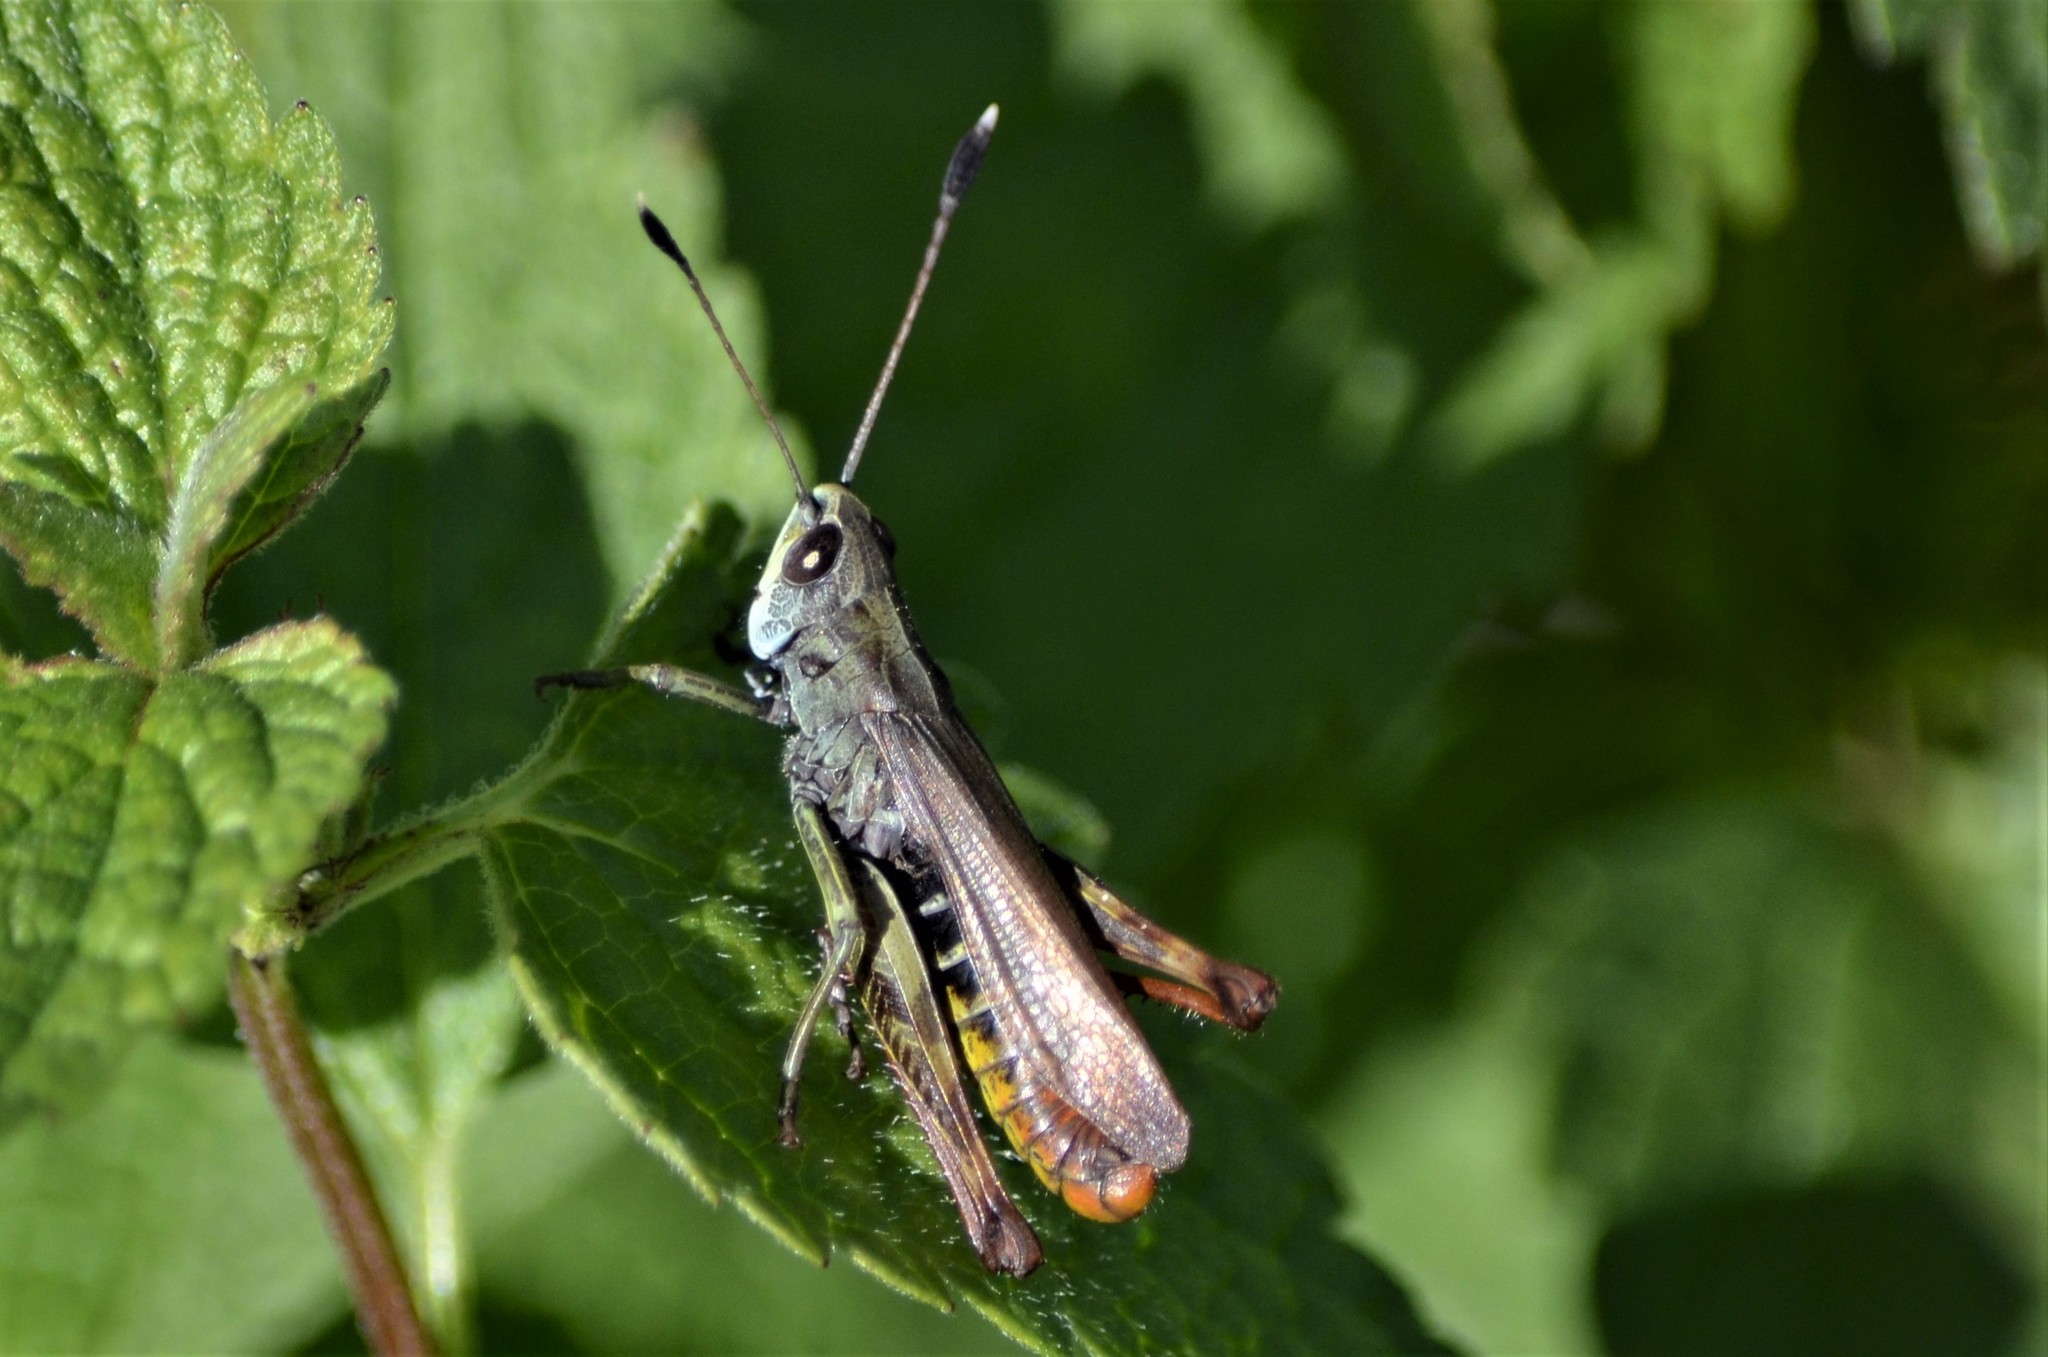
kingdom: Animalia
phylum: Arthropoda
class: Insecta
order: Orthoptera
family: Acrididae
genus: Gomphocerippus
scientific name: Gomphocerippus rufus
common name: Rufous grasshopper
